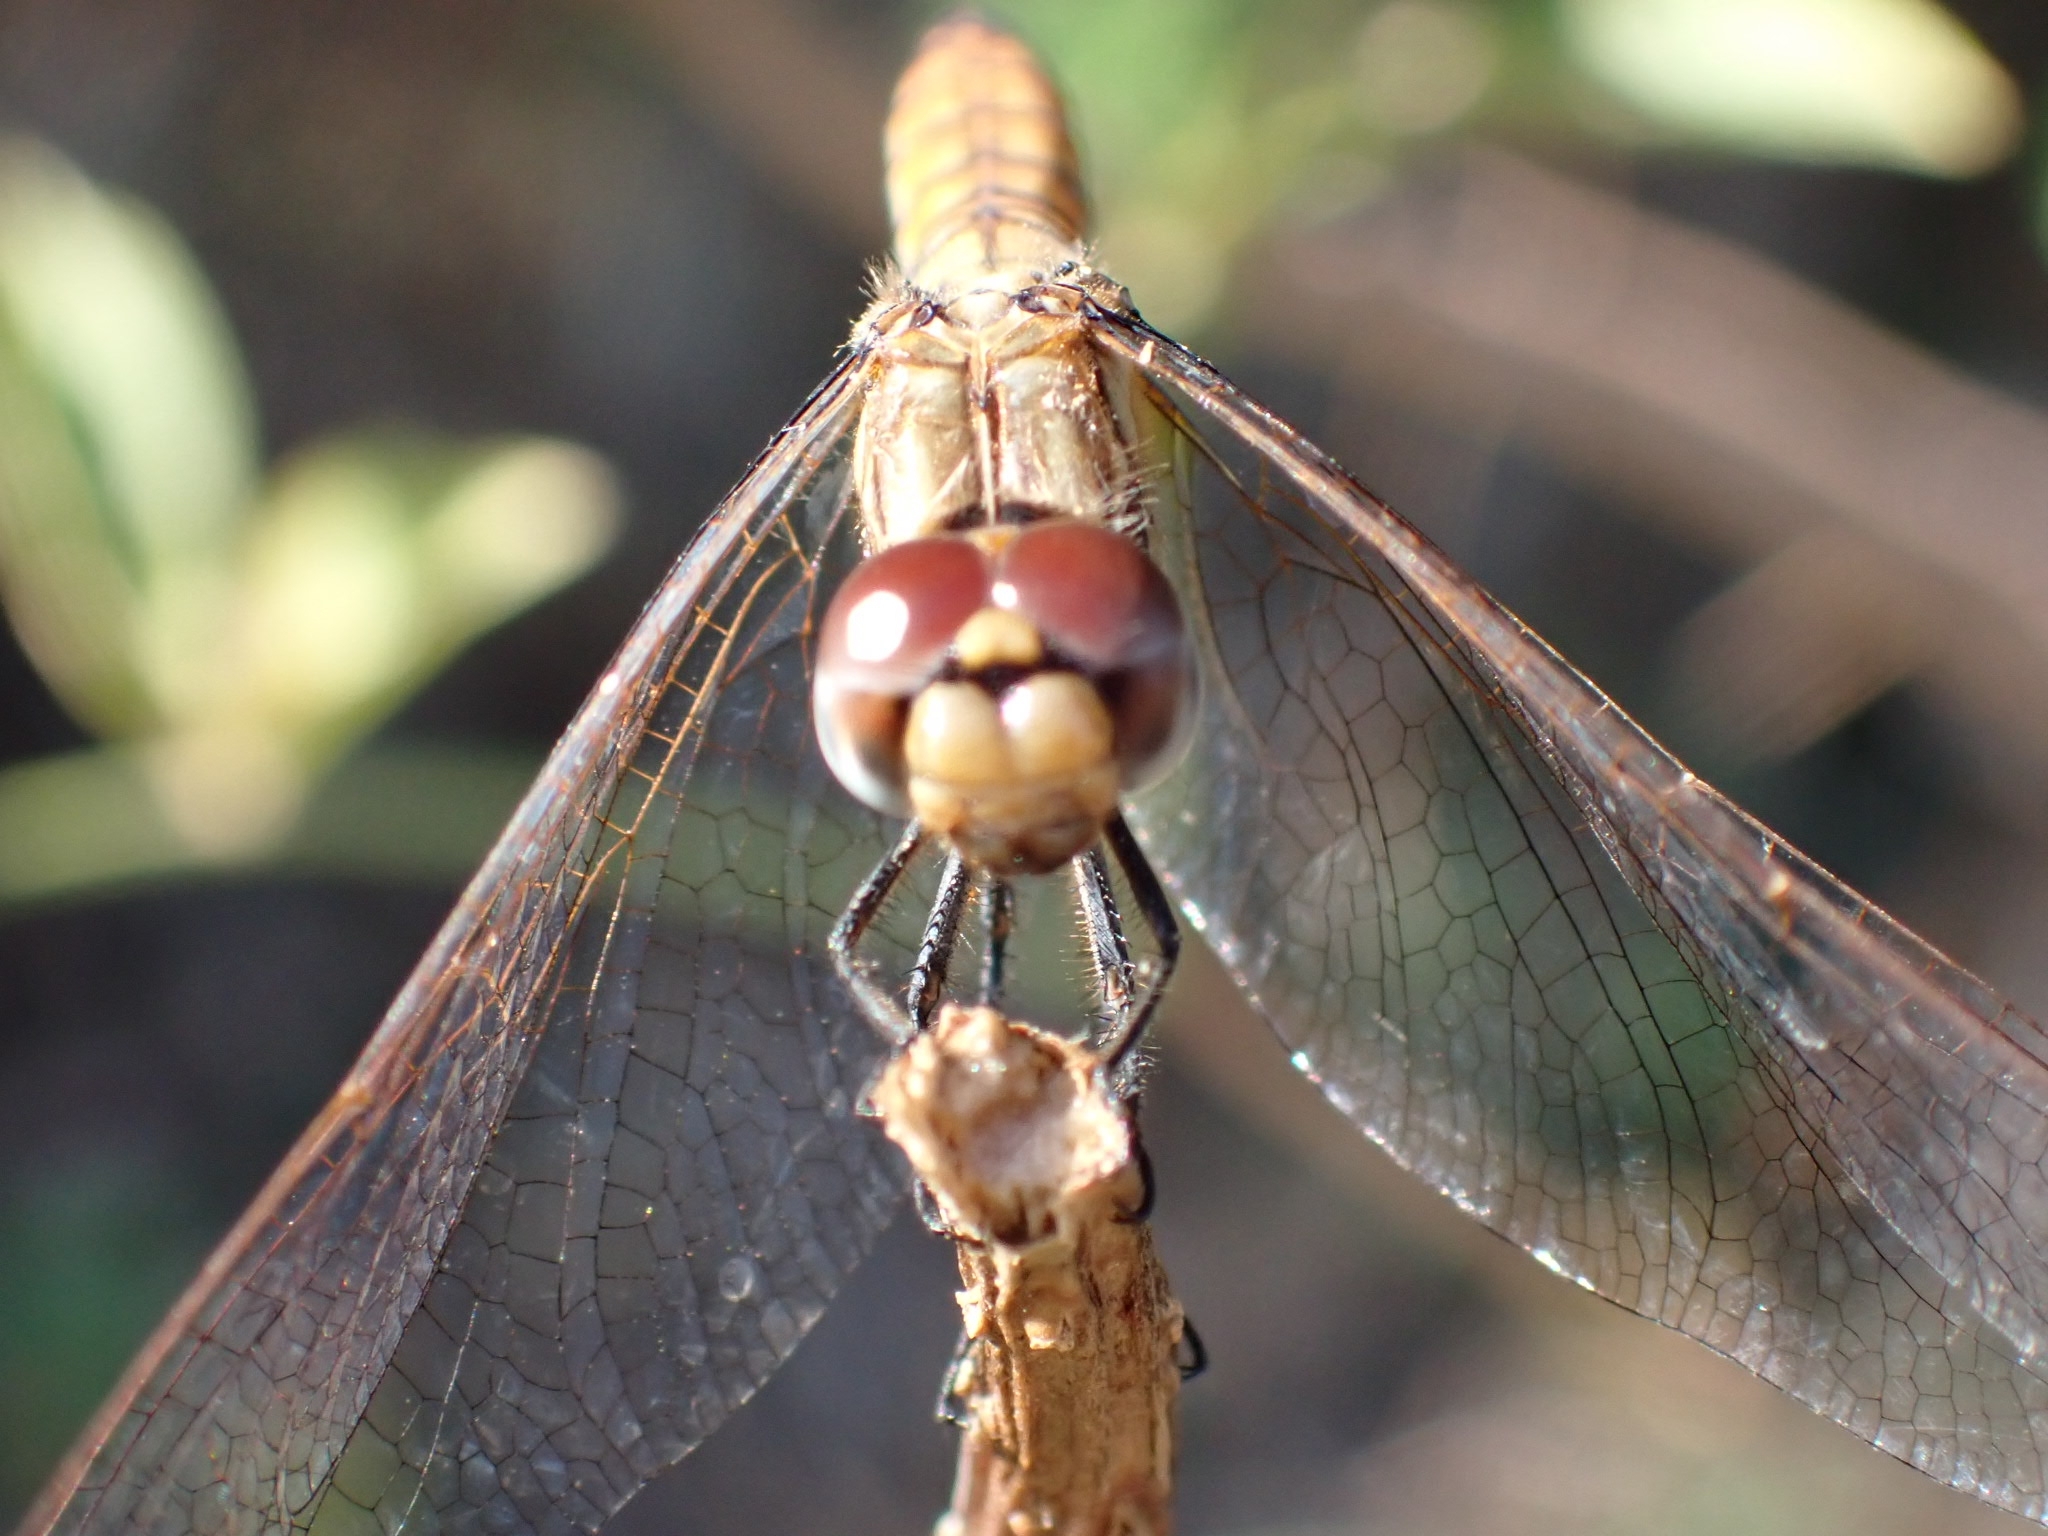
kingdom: Animalia
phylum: Arthropoda
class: Insecta
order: Odonata
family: Libellulidae
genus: Trithemis
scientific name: Trithemis annulata
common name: Violet dropwing
